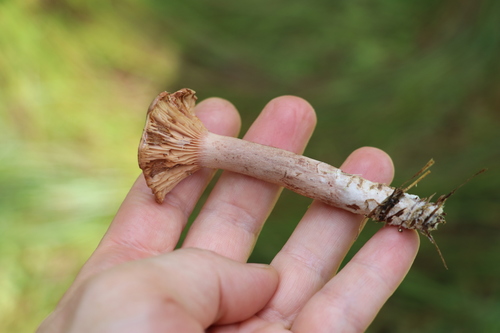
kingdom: Fungi
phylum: Basidiomycota
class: Agaricomycetes
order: Russulales
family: Russulaceae
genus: Lactarius
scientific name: Lactarius rufus
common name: Rufous milk-cap
